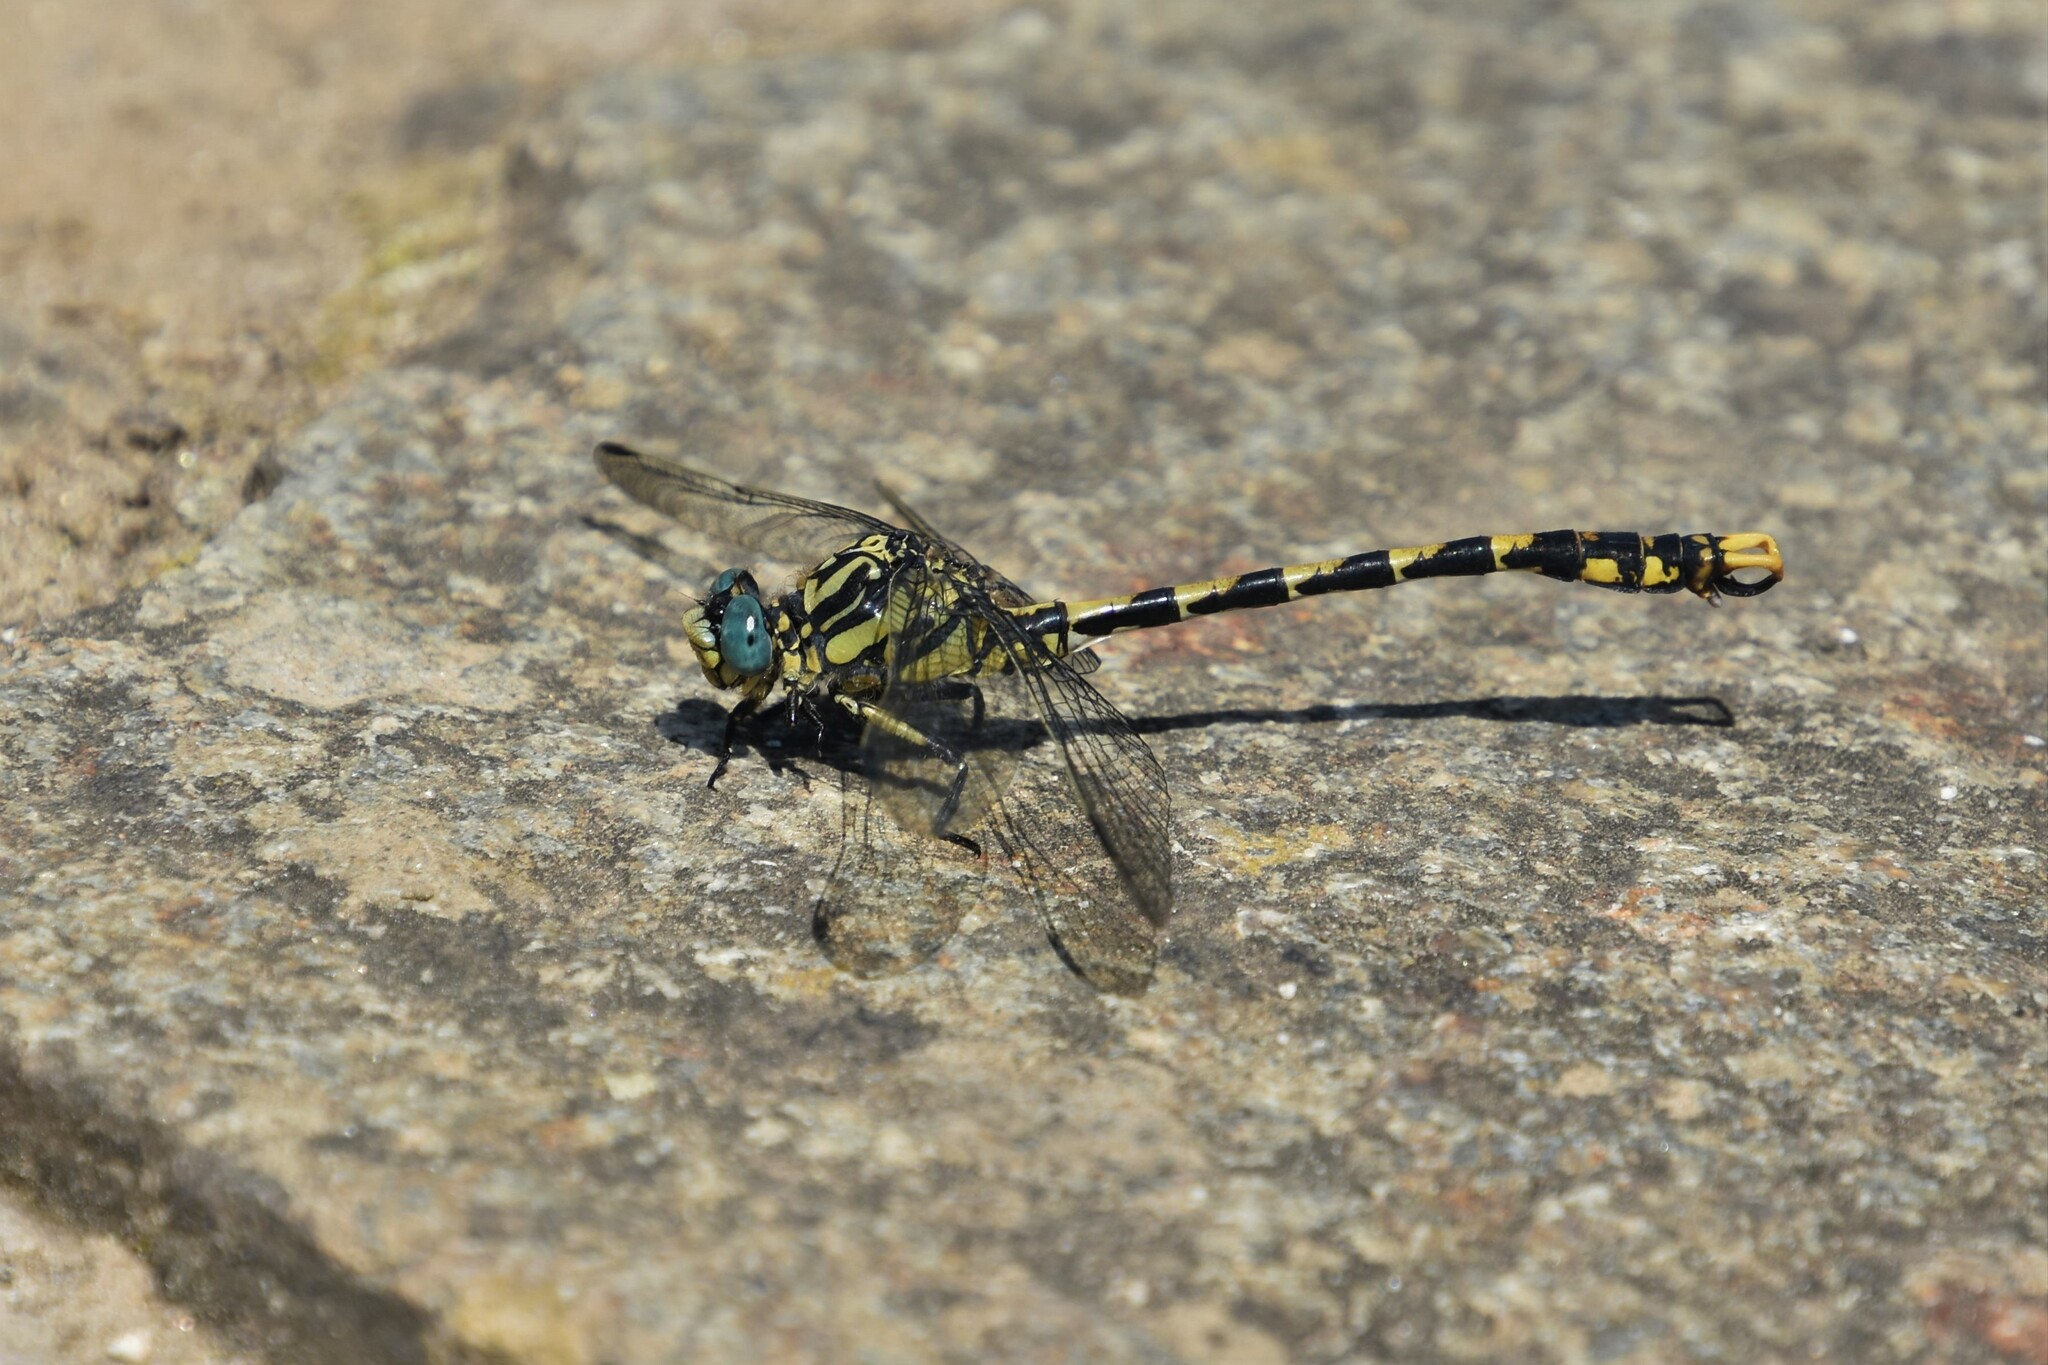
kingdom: Animalia
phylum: Arthropoda
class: Insecta
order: Odonata
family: Gomphidae
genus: Onychogomphus
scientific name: Onychogomphus uncatus
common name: Large pincertail
